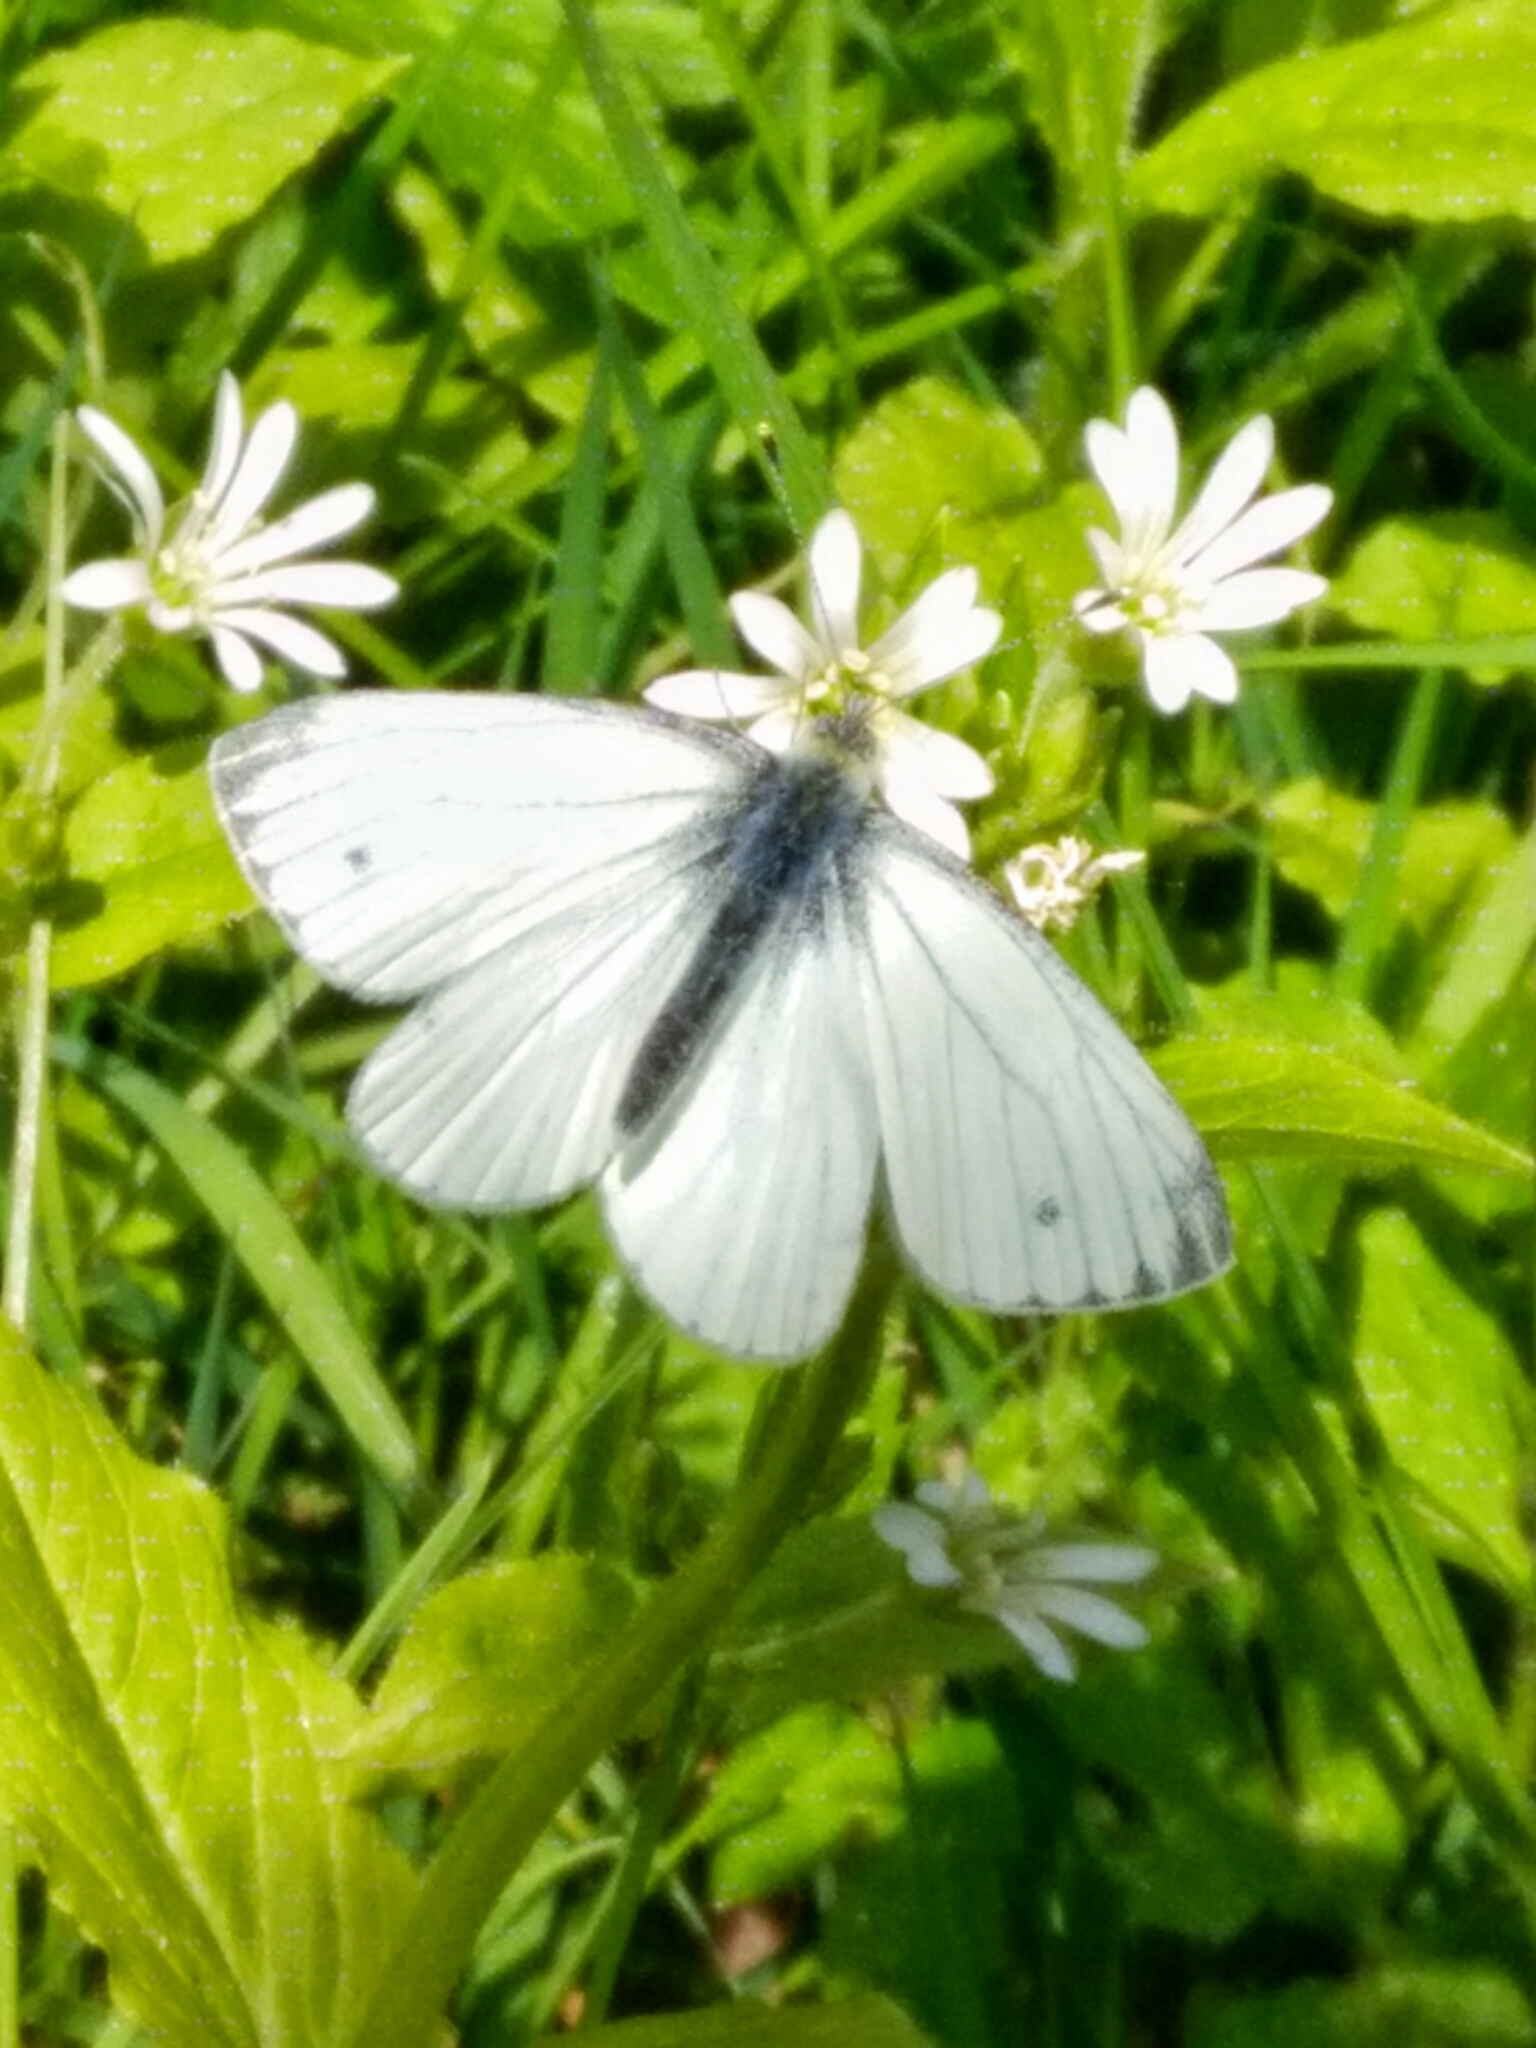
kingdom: Animalia
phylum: Arthropoda
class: Insecta
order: Lepidoptera
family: Pieridae
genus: Pieris
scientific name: Pieris napi
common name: Green-veined white
